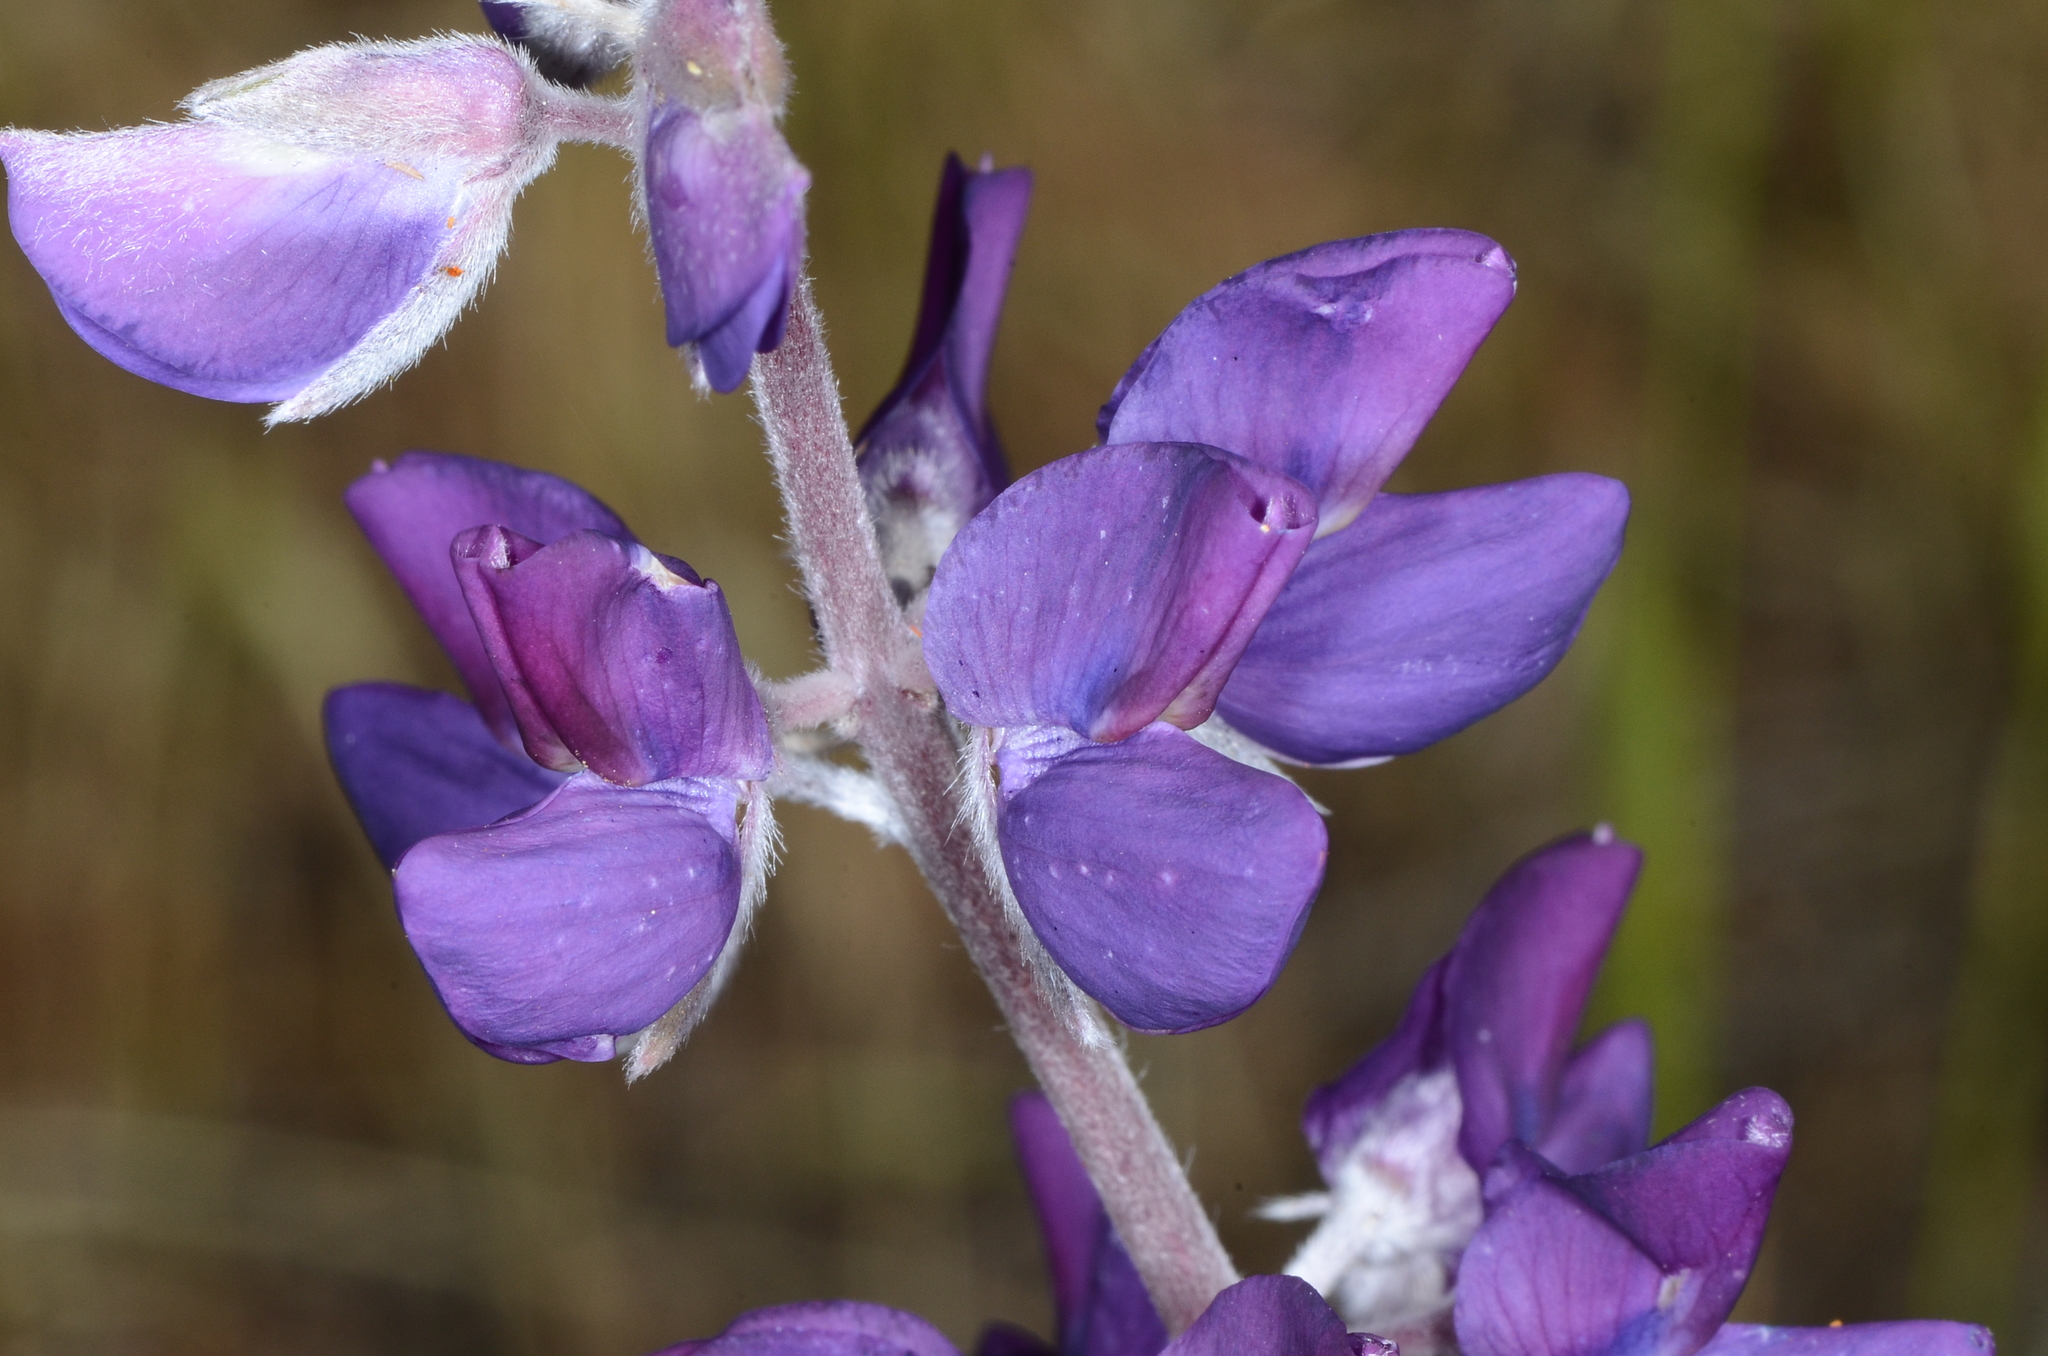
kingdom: Plantae
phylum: Tracheophyta
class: Magnoliopsida
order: Fabales
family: Fabaceae
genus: Lupinus
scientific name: Lupinus albifrons
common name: Foothill lupine
